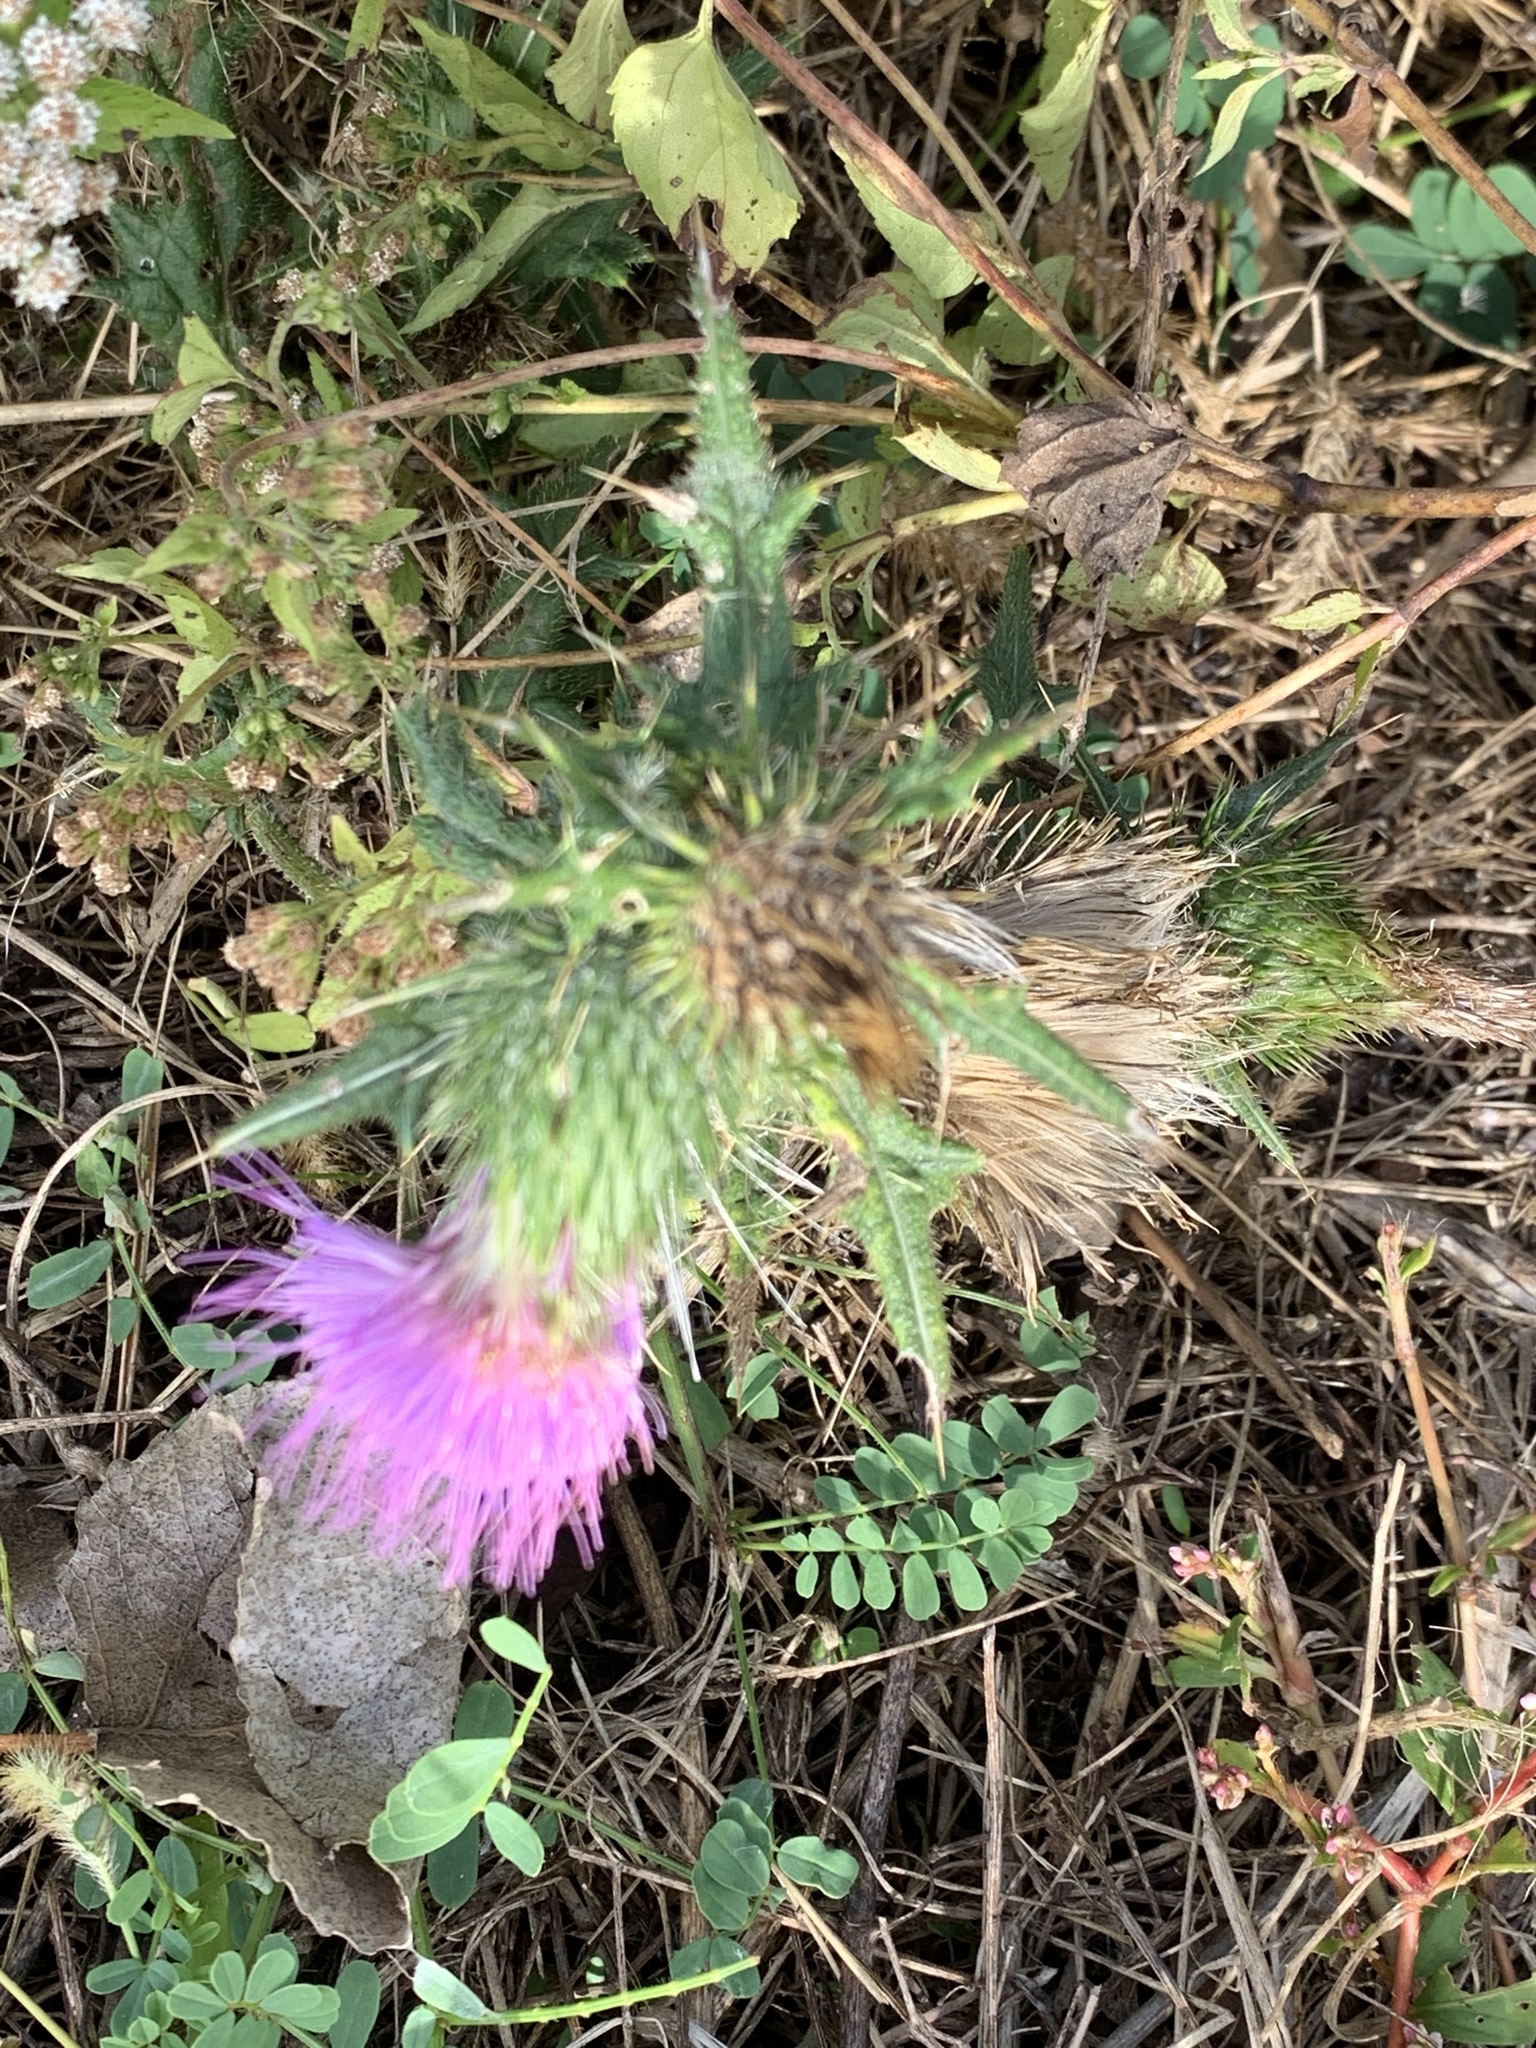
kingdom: Plantae
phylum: Tracheophyta
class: Magnoliopsida
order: Asterales
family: Asteraceae
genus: Cirsium
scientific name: Cirsium vulgare
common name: Bull thistle
